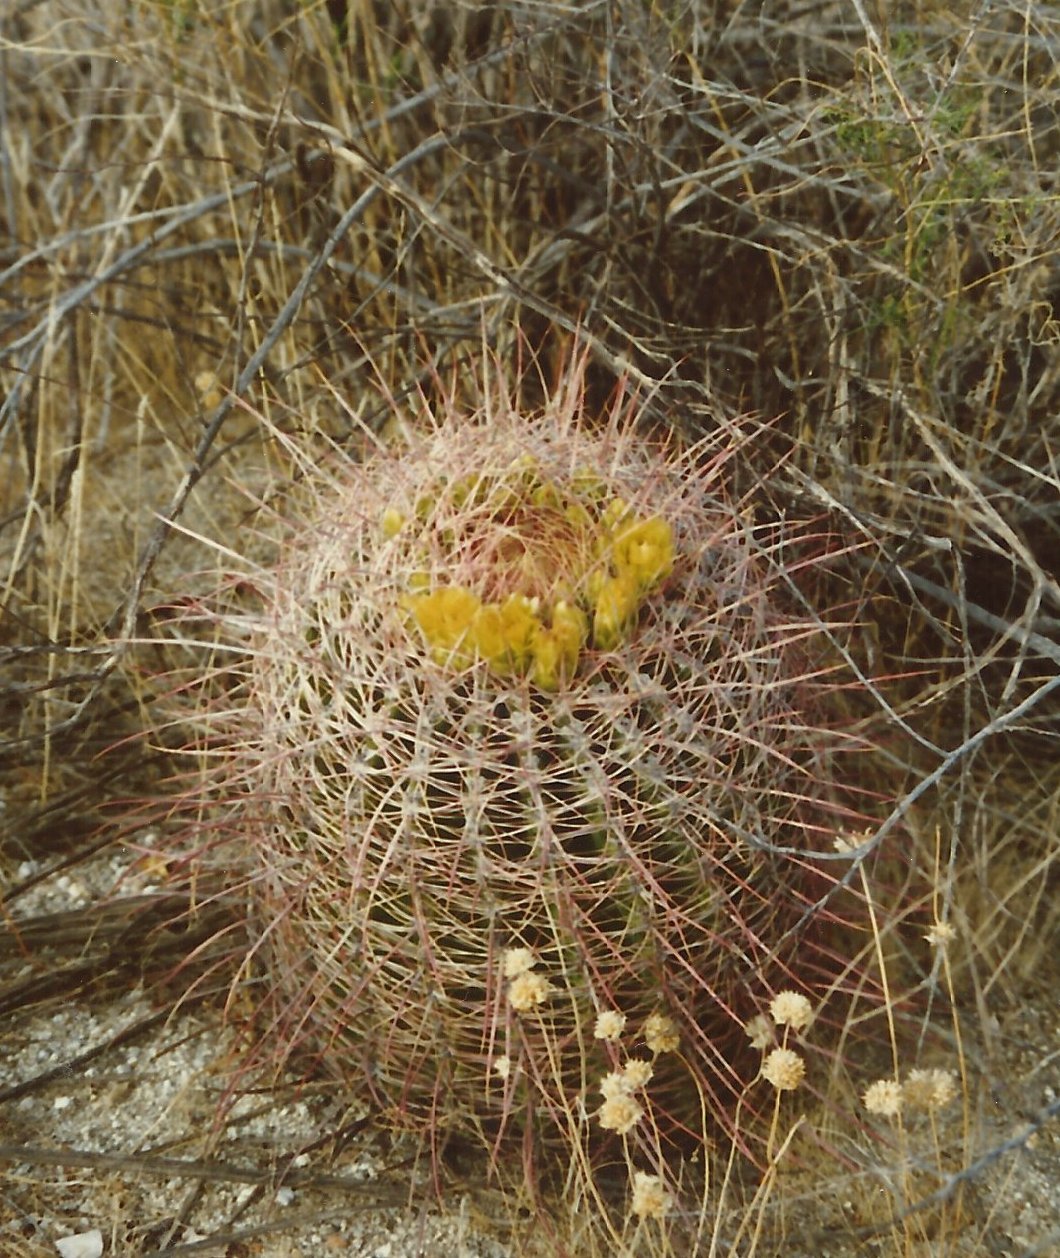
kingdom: Plantae
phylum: Tracheophyta
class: Magnoliopsida
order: Caryophyllales
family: Cactaceae
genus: Ferocactus
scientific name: Ferocactus cylindraceus
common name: California barrel cactus
